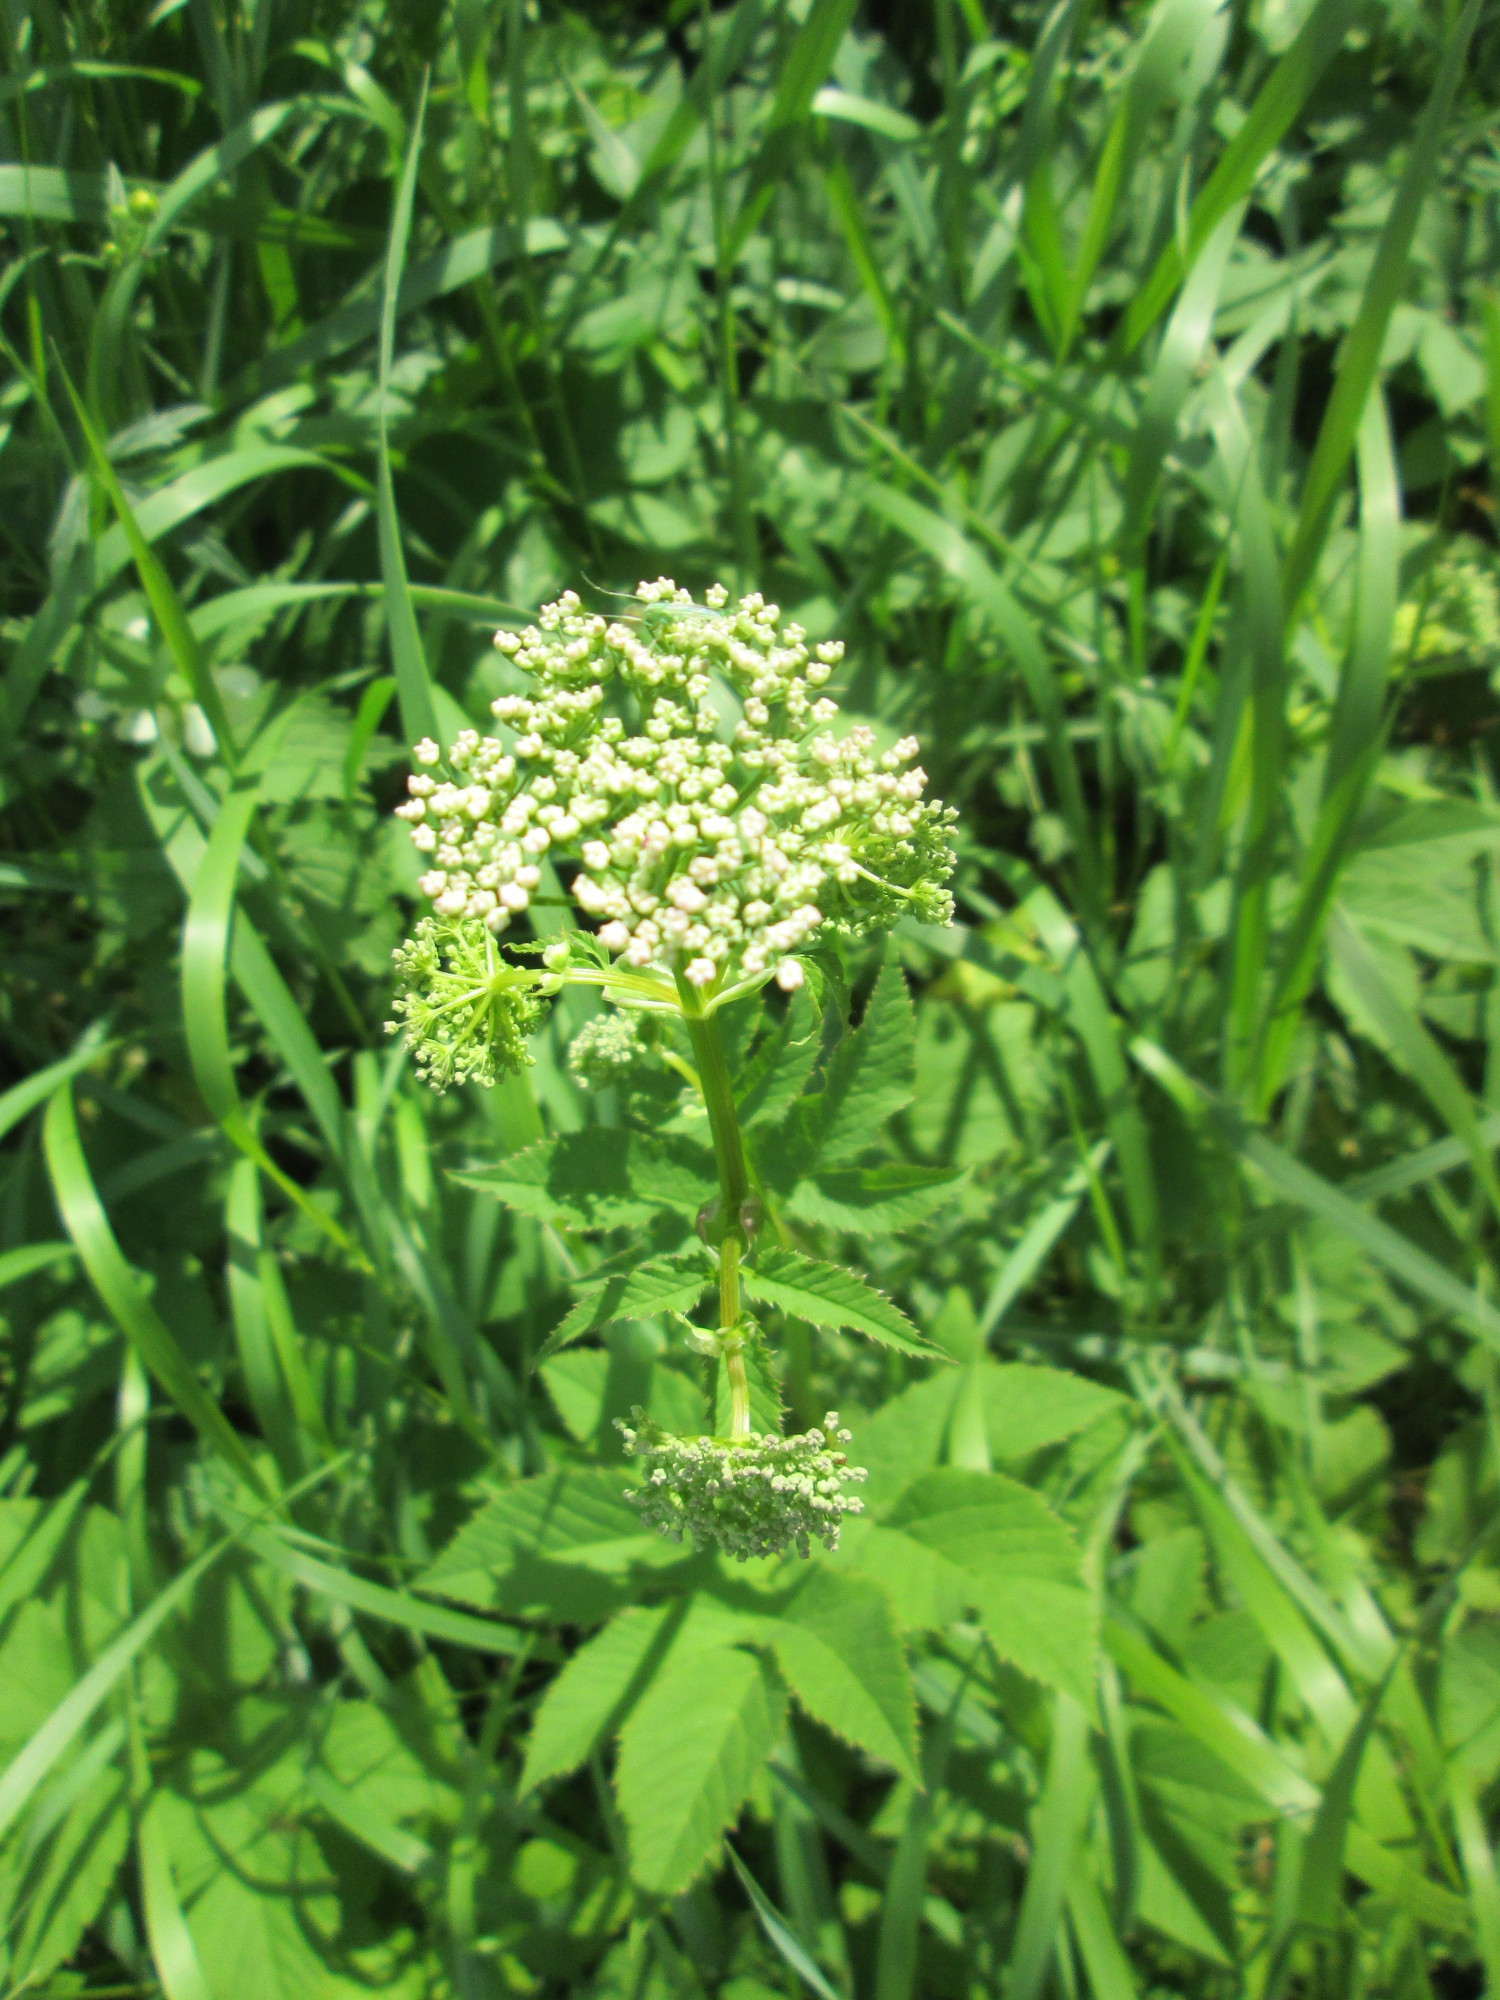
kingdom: Plantae
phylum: Tracheophyta
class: Magnoliopsida
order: Apiales
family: Apiaceae
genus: Aegopodium
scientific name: Aegopodium podagraria
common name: Ground-elder
